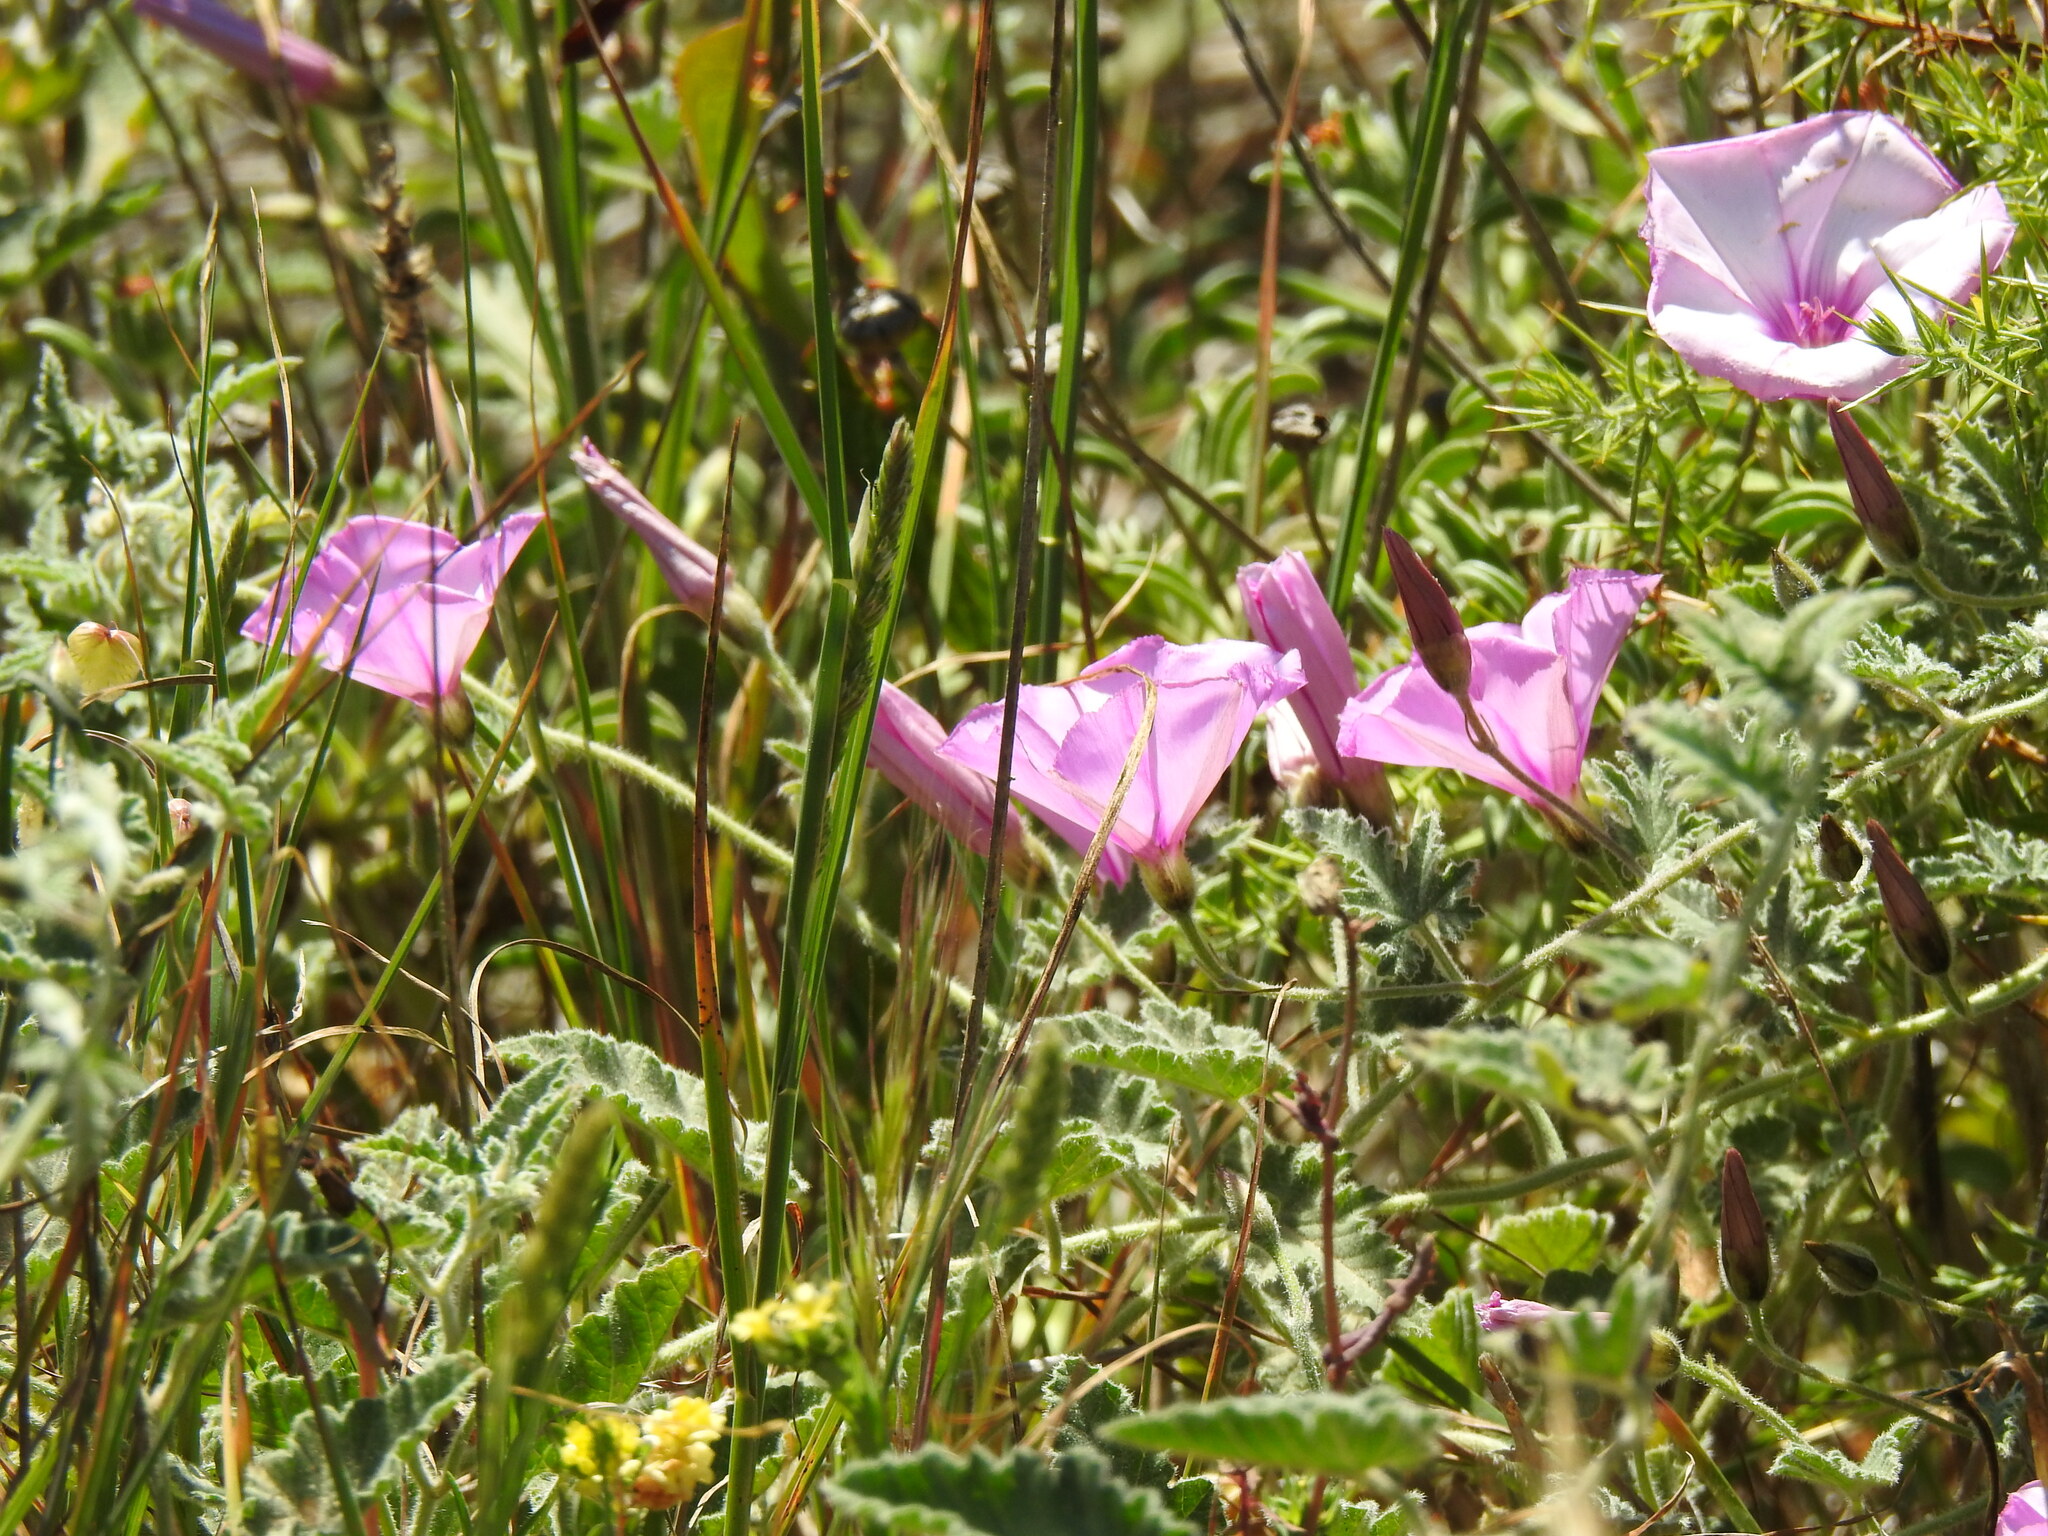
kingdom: Plantae
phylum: Tracheophyta
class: Magnoliopsida
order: Solanales
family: Convolvulaceae
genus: Convolvulus
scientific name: Convolvulus althaeoides
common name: Mallow bindweed
